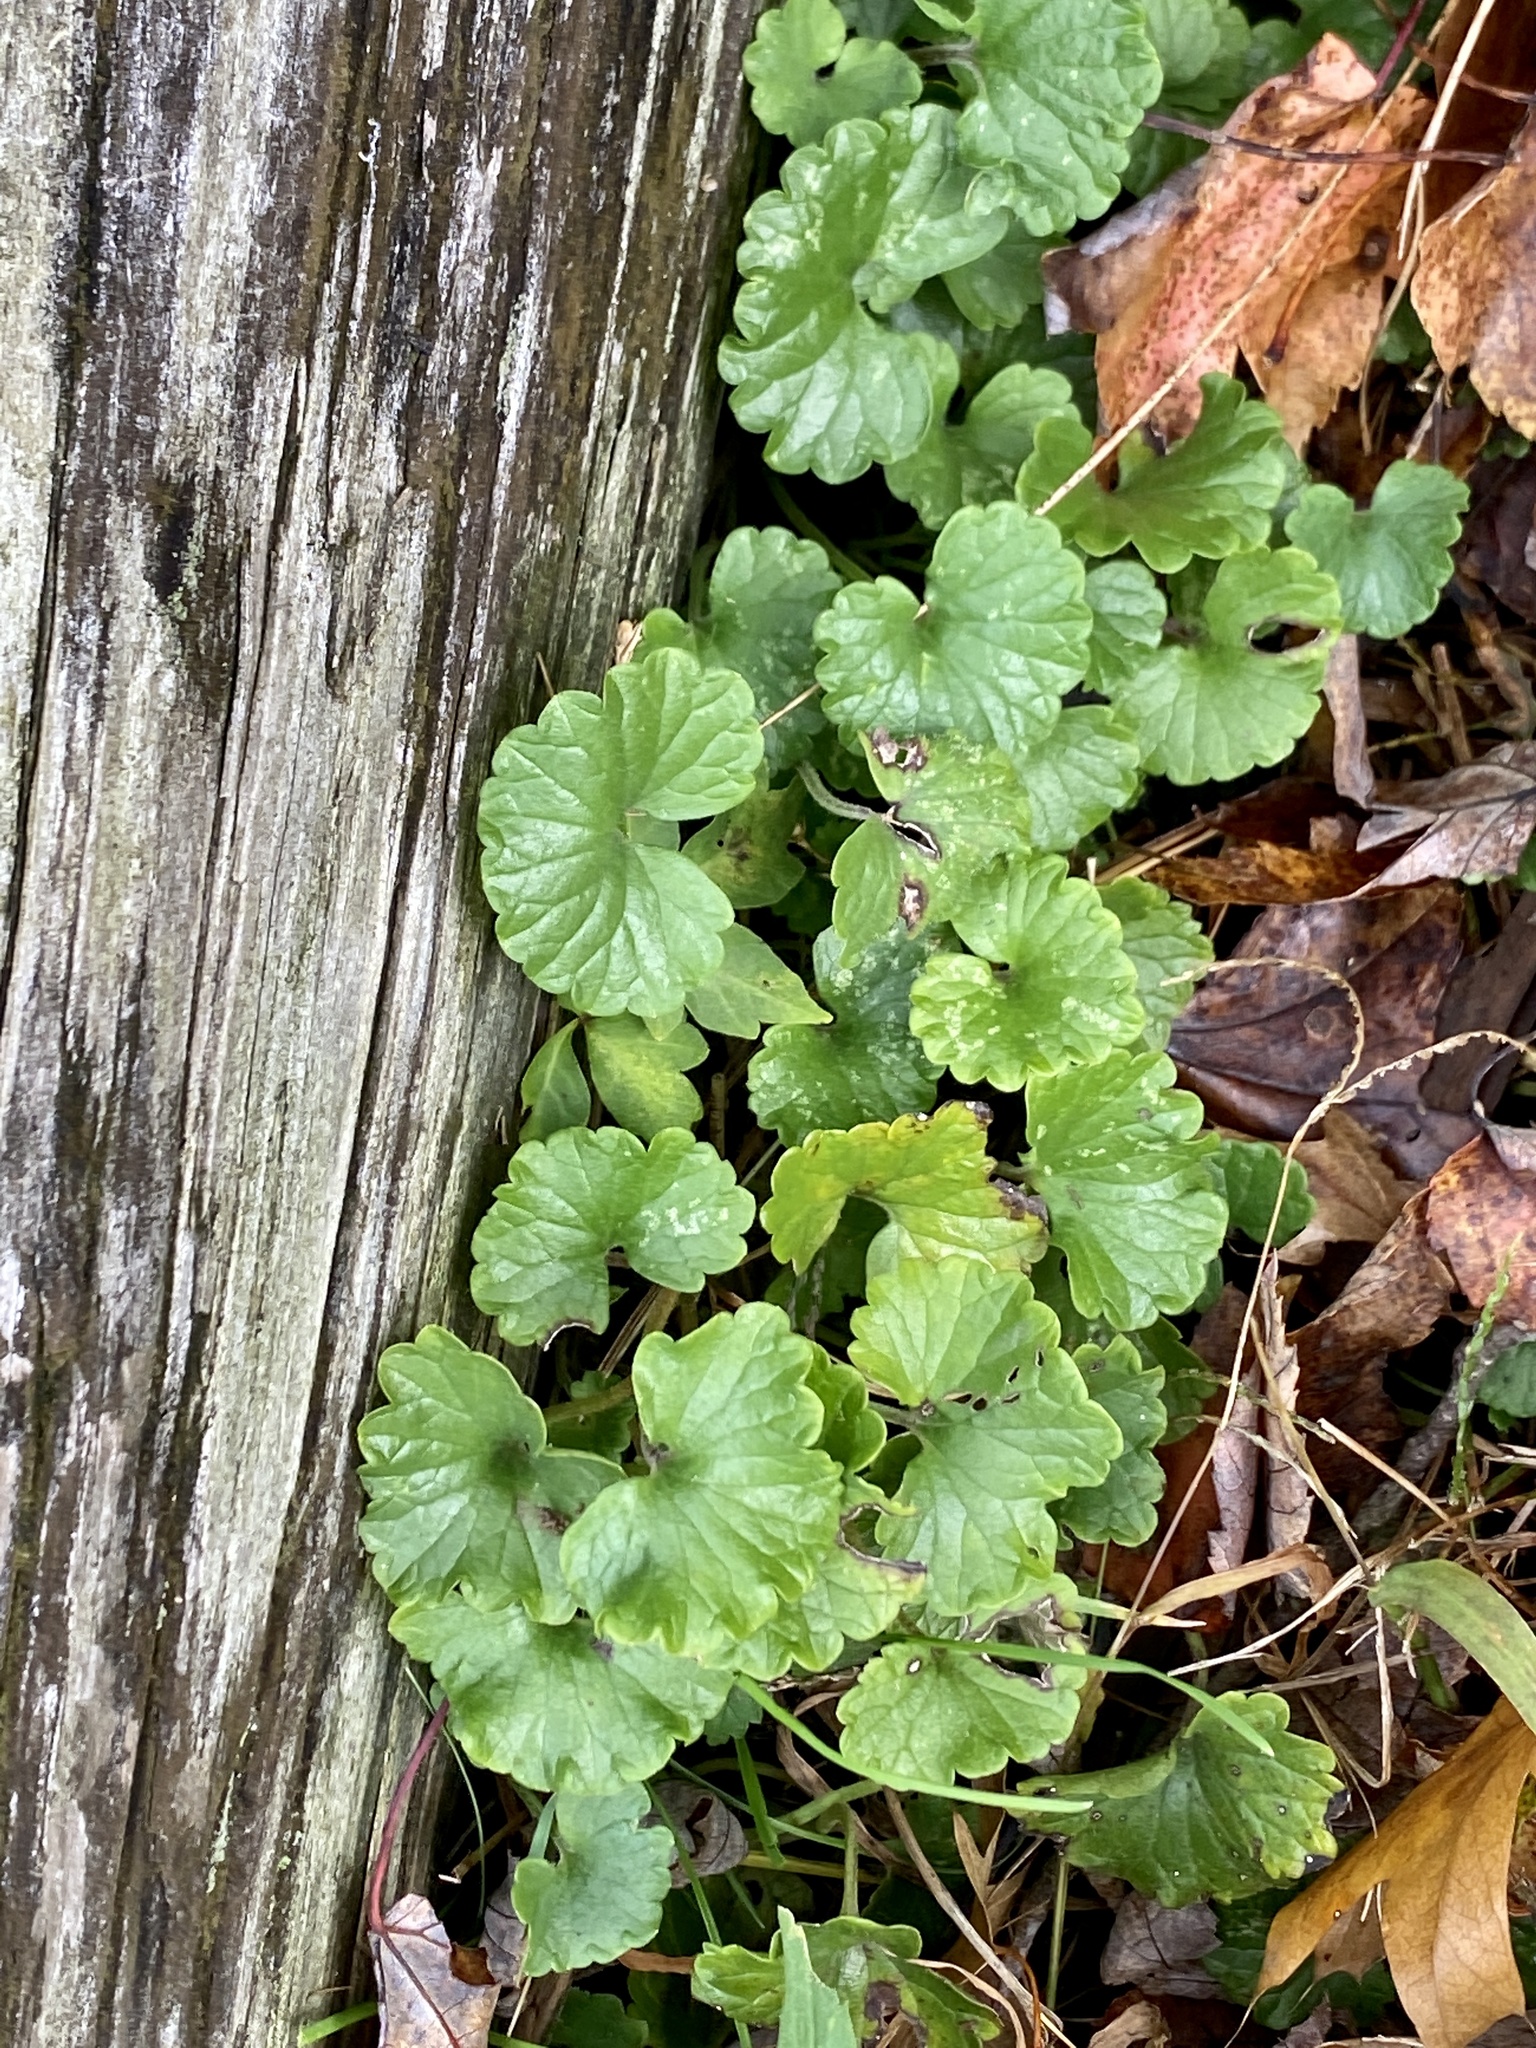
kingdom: Plantae
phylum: Tracheophyta
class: Magnoliopsida
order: Lamiales
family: Lamiaceae
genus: Glechoma
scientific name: Glechoma hederacea
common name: Ground ivy
